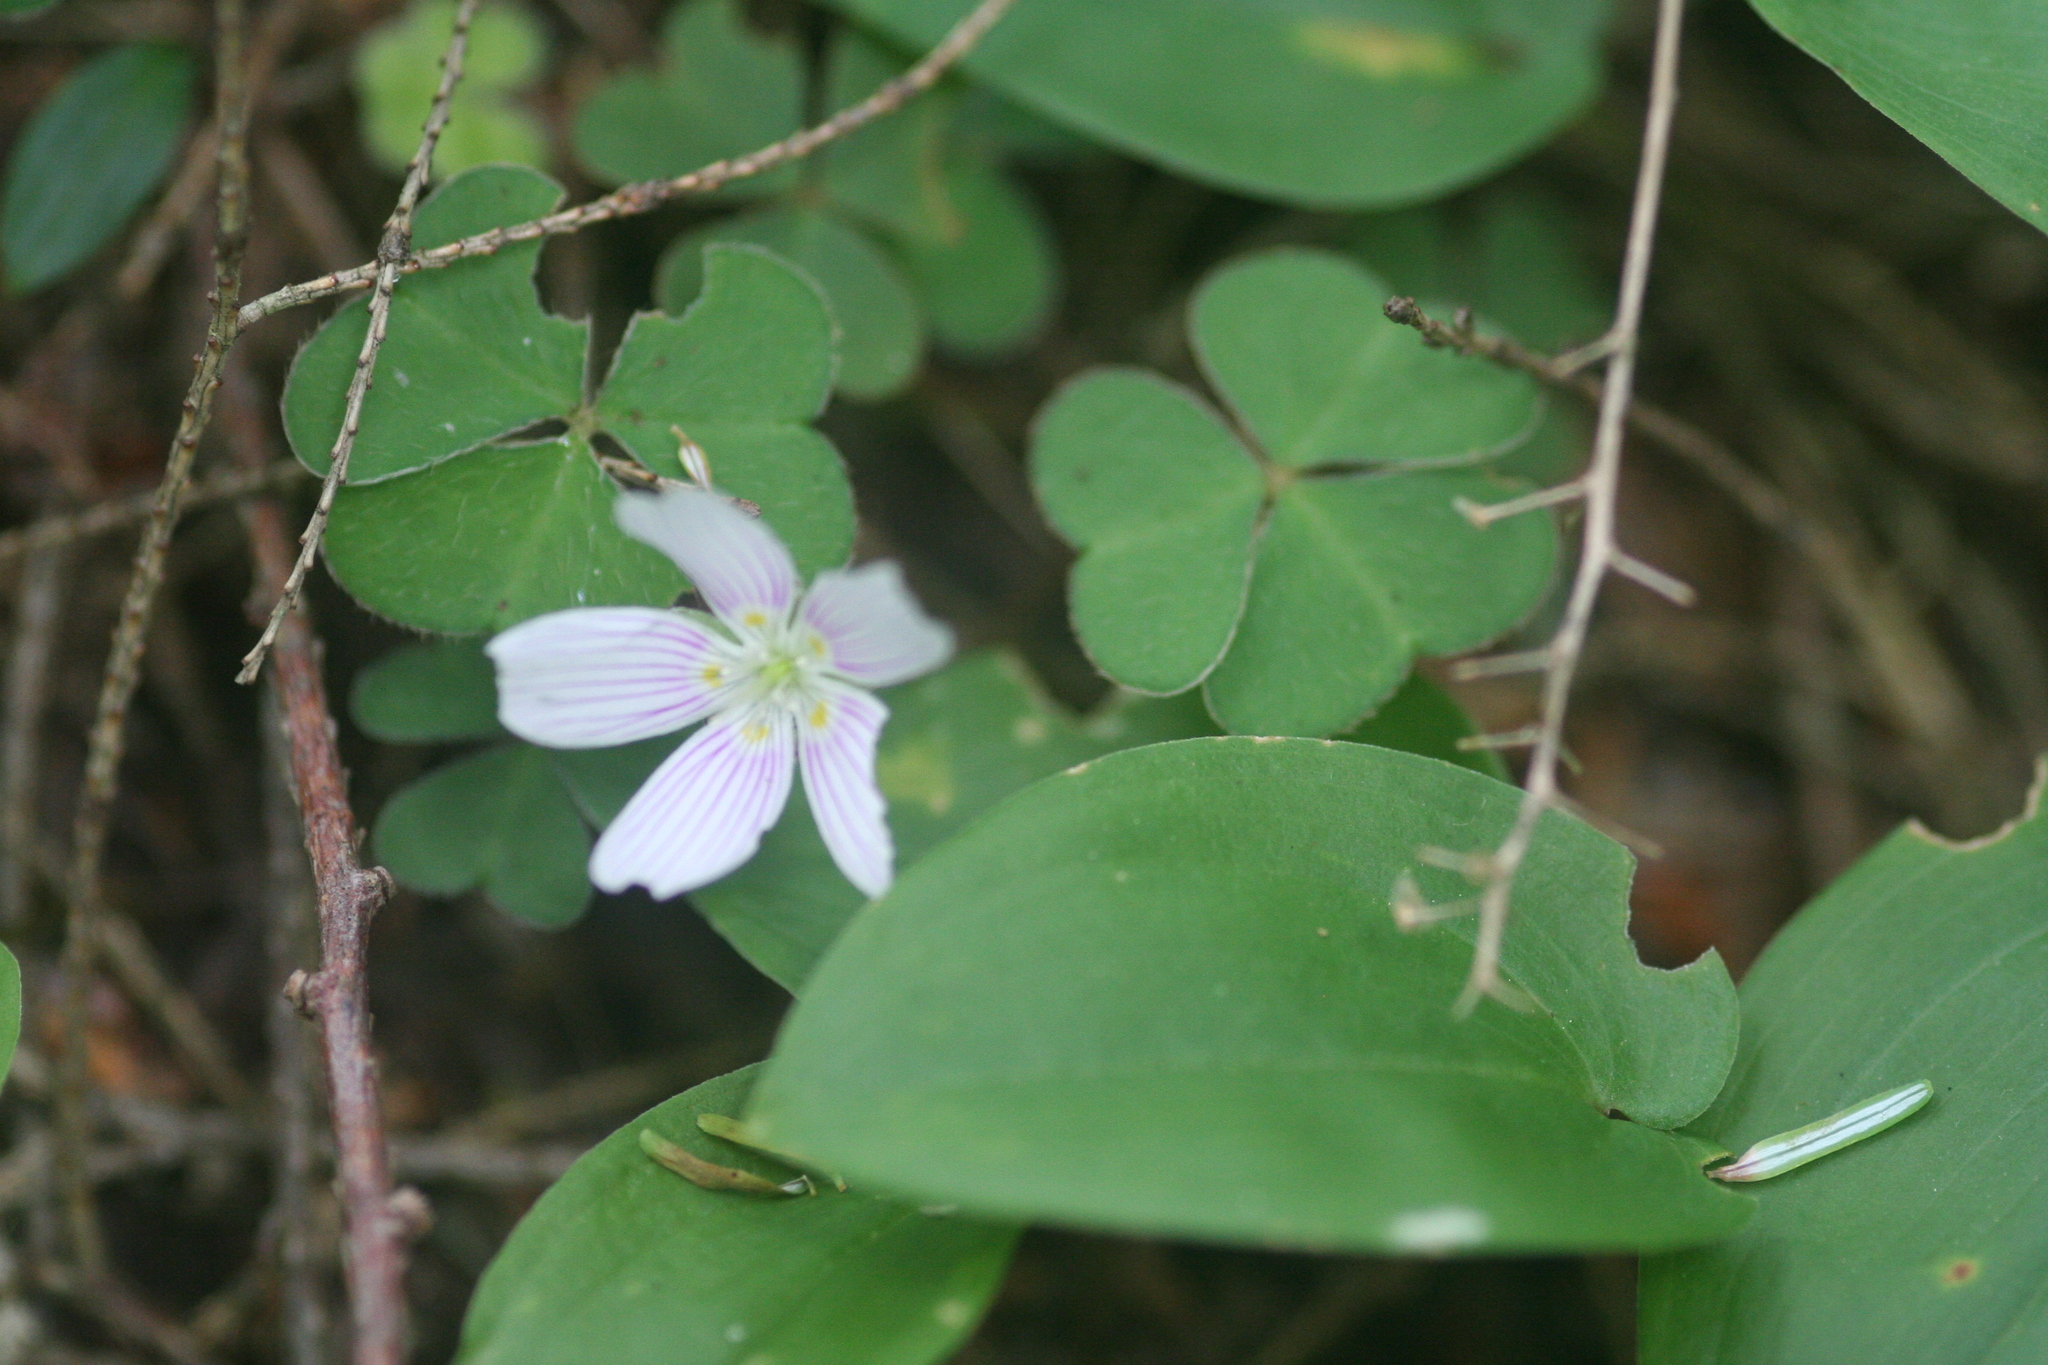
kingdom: Plantae
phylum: Tracheophyta
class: Magnoliopsida
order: Oxalidales
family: Oxalidaceae
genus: Oxalis
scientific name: Oxalis montana
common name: American wood-sorrel
